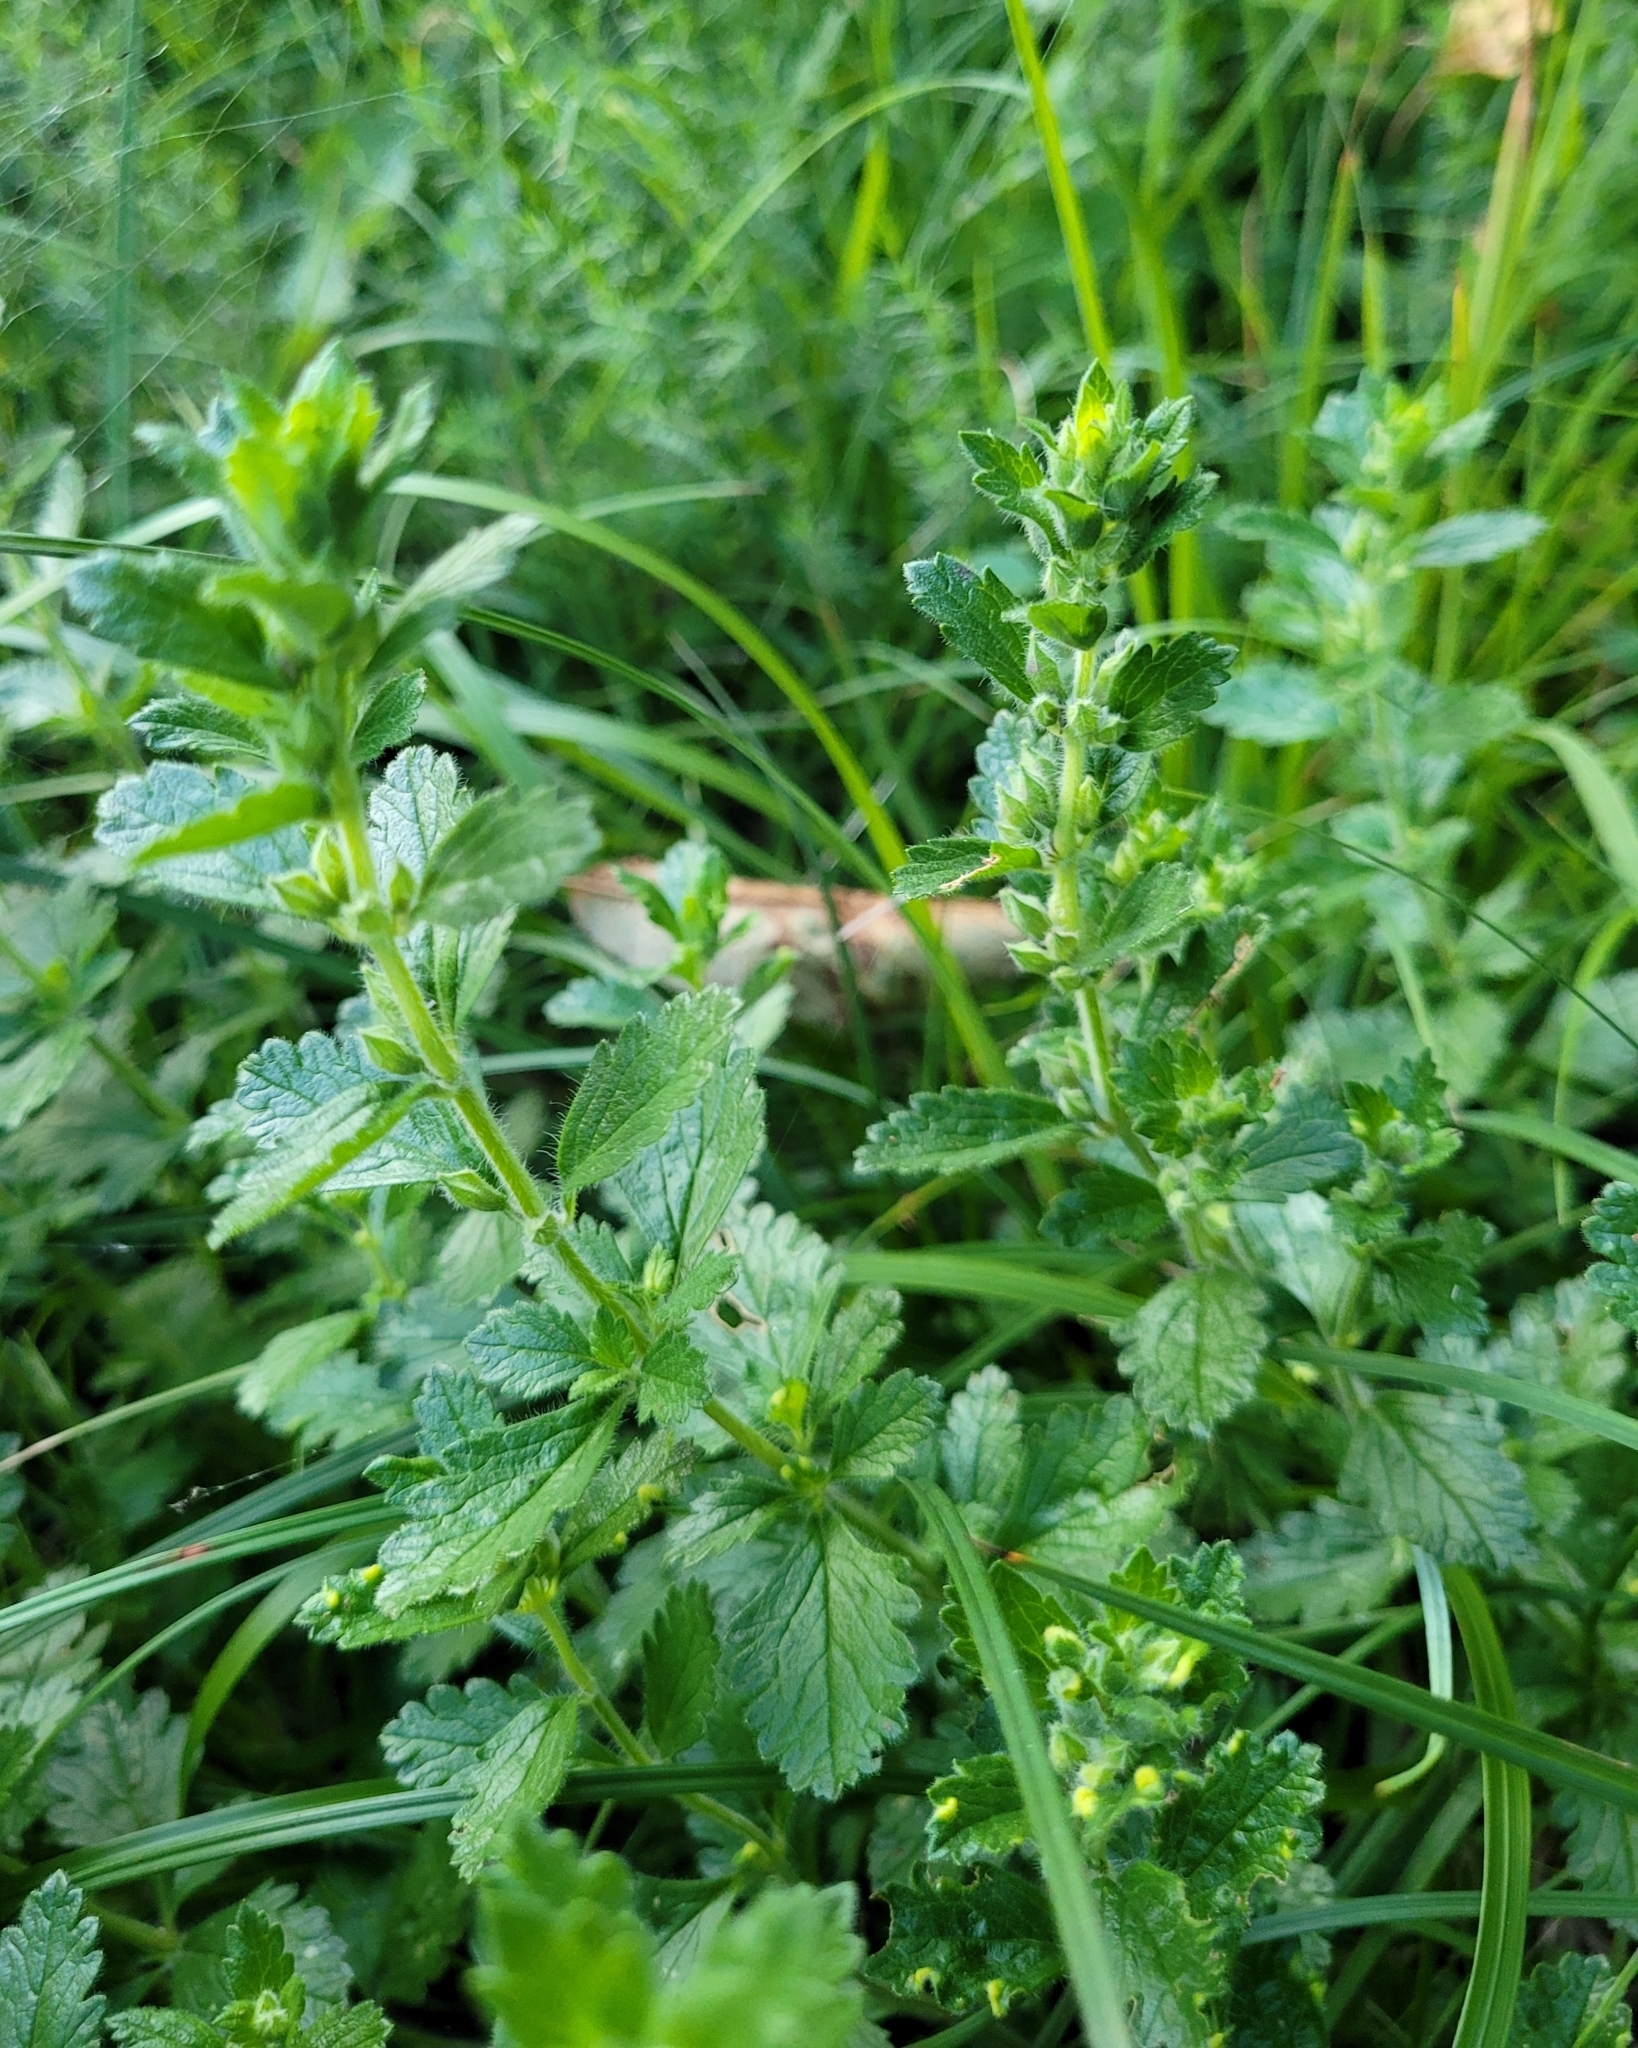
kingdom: Plantae
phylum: Tracheophyta
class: Magnoliopsida
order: Lamiales
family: Lamiaceae
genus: Teucrium
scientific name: Teucrium chamaedrys
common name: Wall germander
